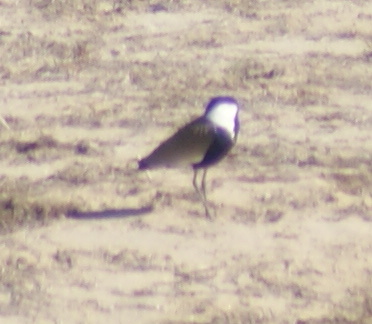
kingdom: Animalia
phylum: Chordata
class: Aves
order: Charadriiformes
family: Charadriidae
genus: Vanellus
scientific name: Vanellus spinosus
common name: Spur-winged lapwing
